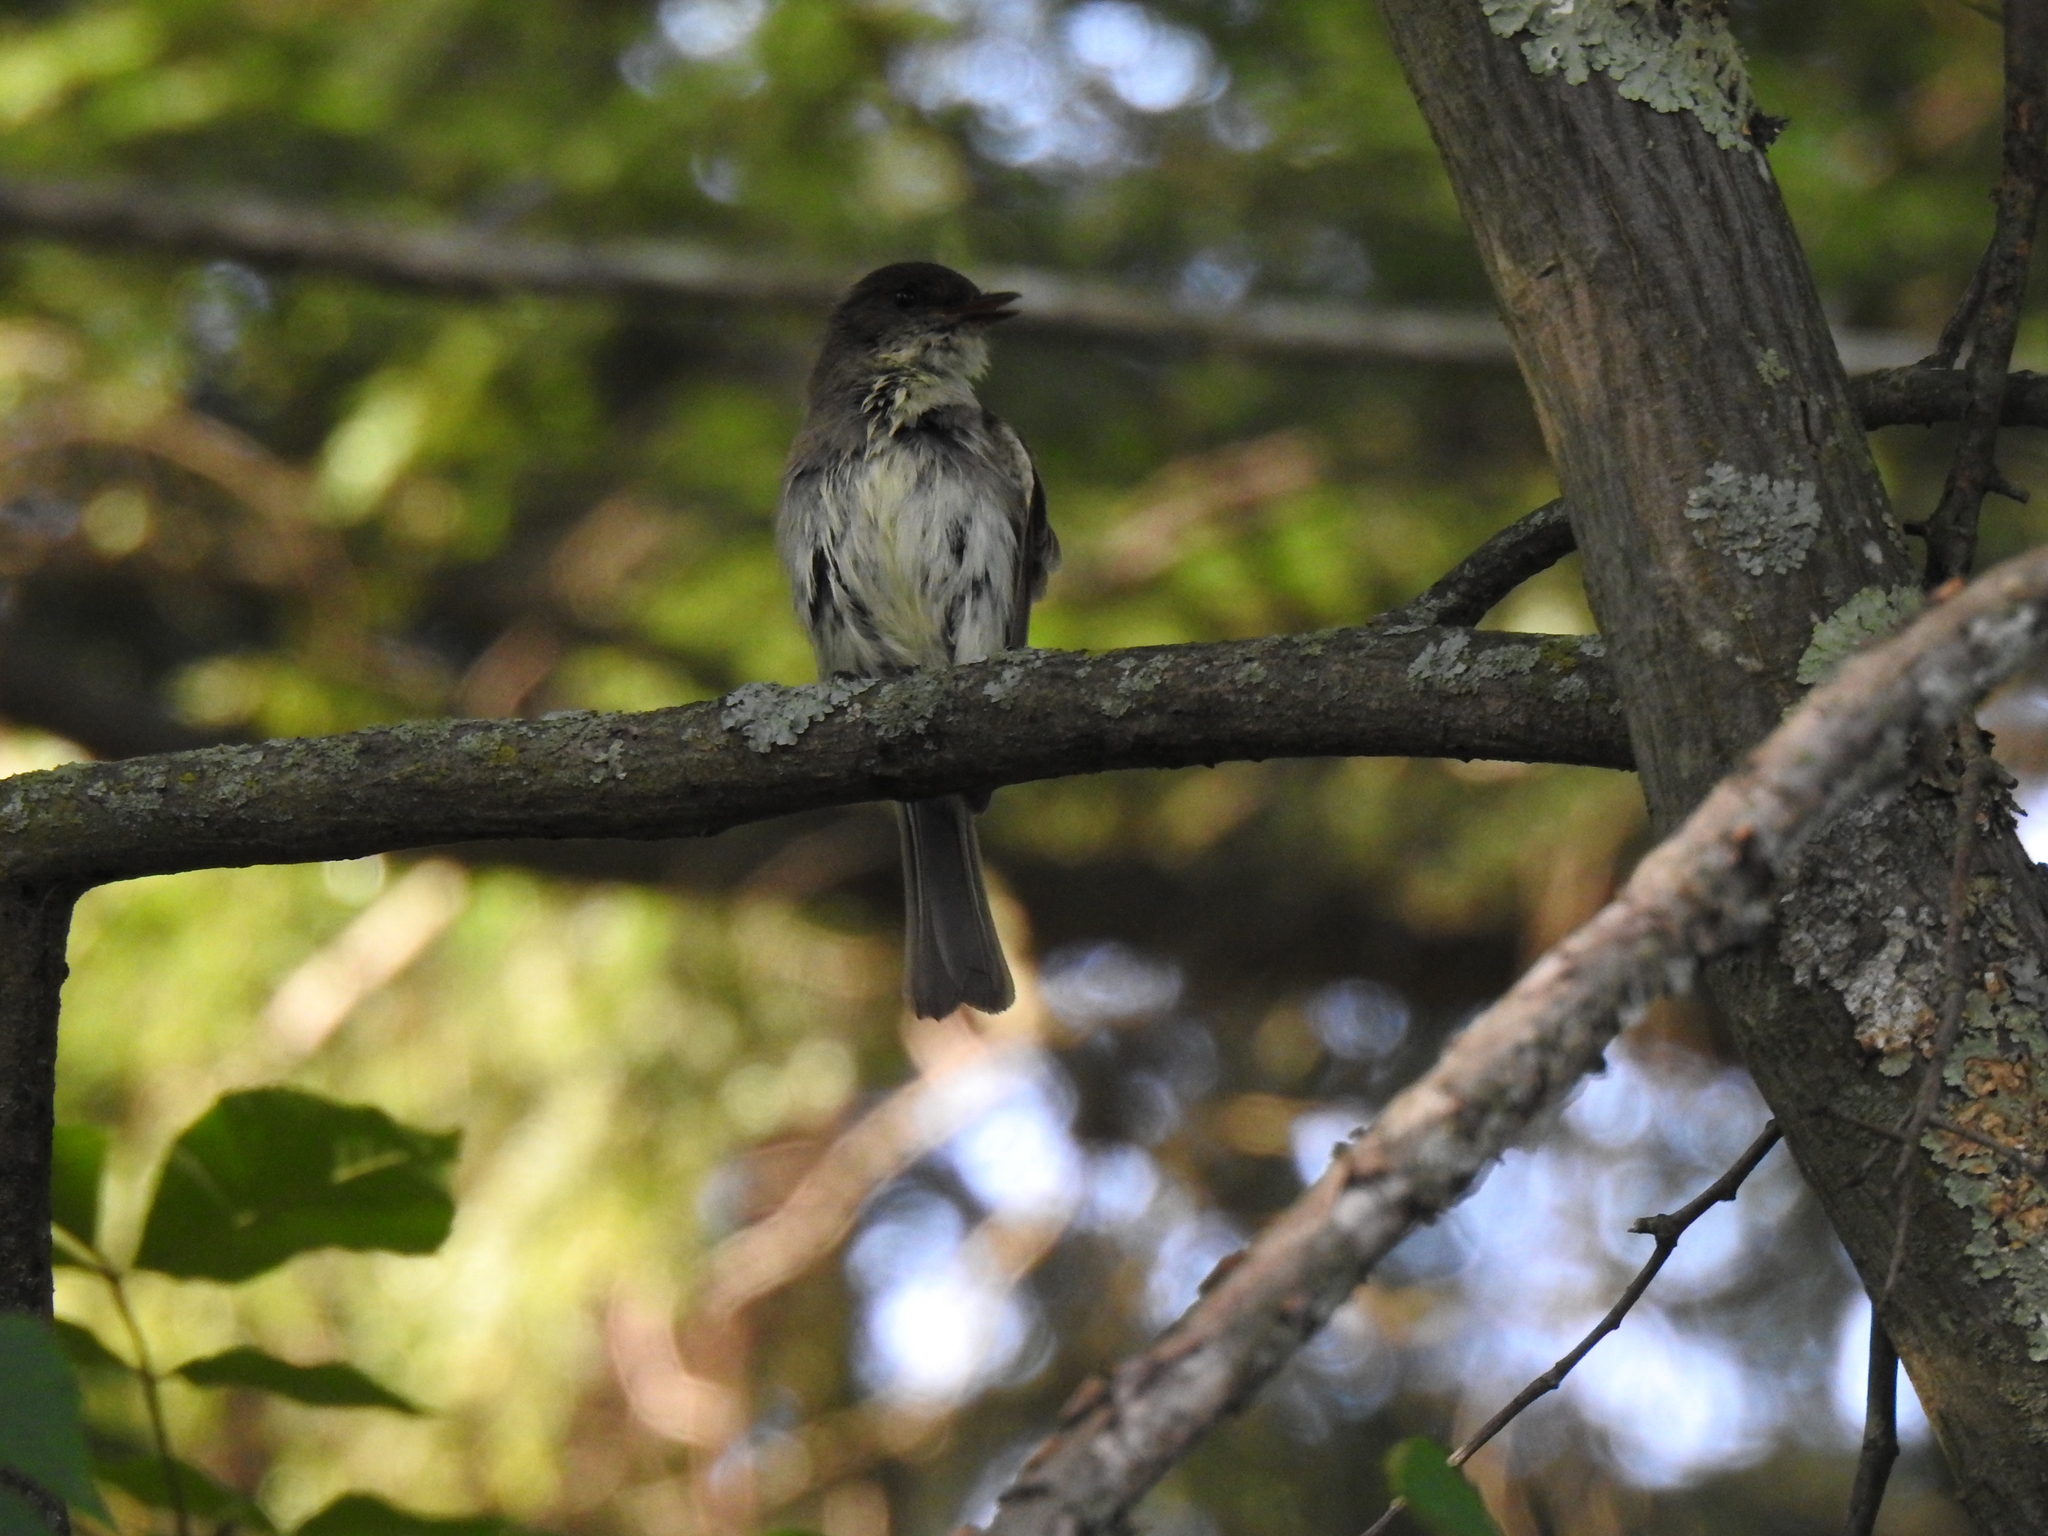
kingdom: Animalia
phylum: Chordata
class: Aves
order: Passeriformes
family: Tyrannidae
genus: Sayornis
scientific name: Sayornis phoebe
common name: Eastern phoebe
